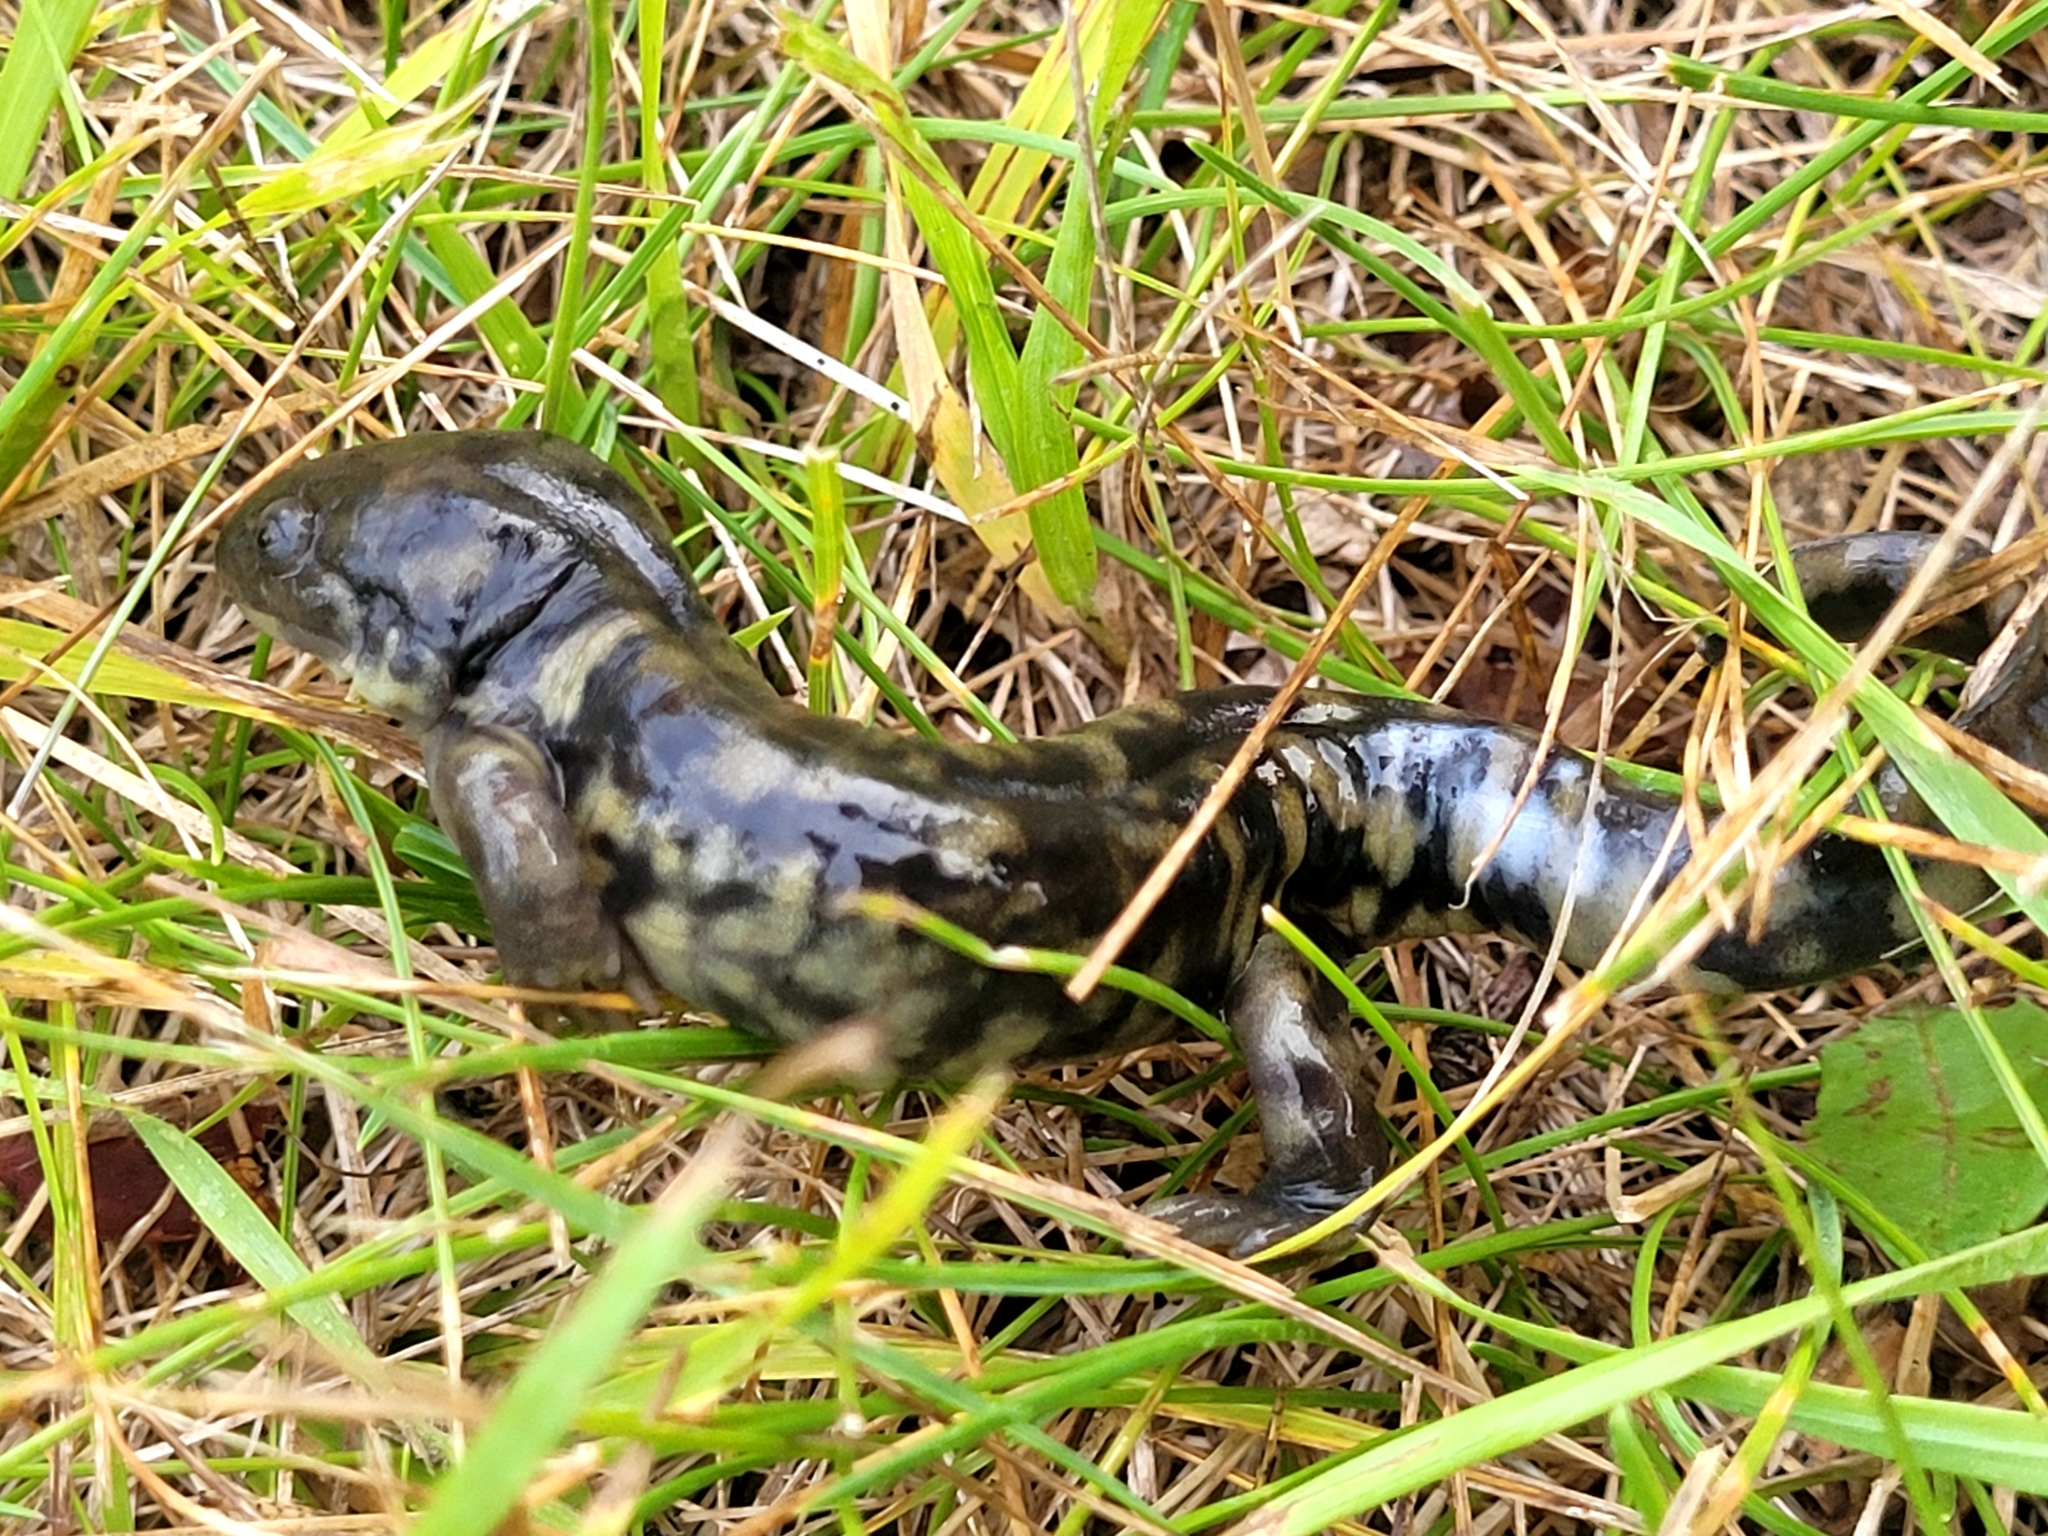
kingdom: Animalia
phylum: Chordata
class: Amphibia
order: Caudata
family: Ambystomatidae
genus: Ambystoma
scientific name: Ambystoma mavortium
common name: Western tiger salamander
